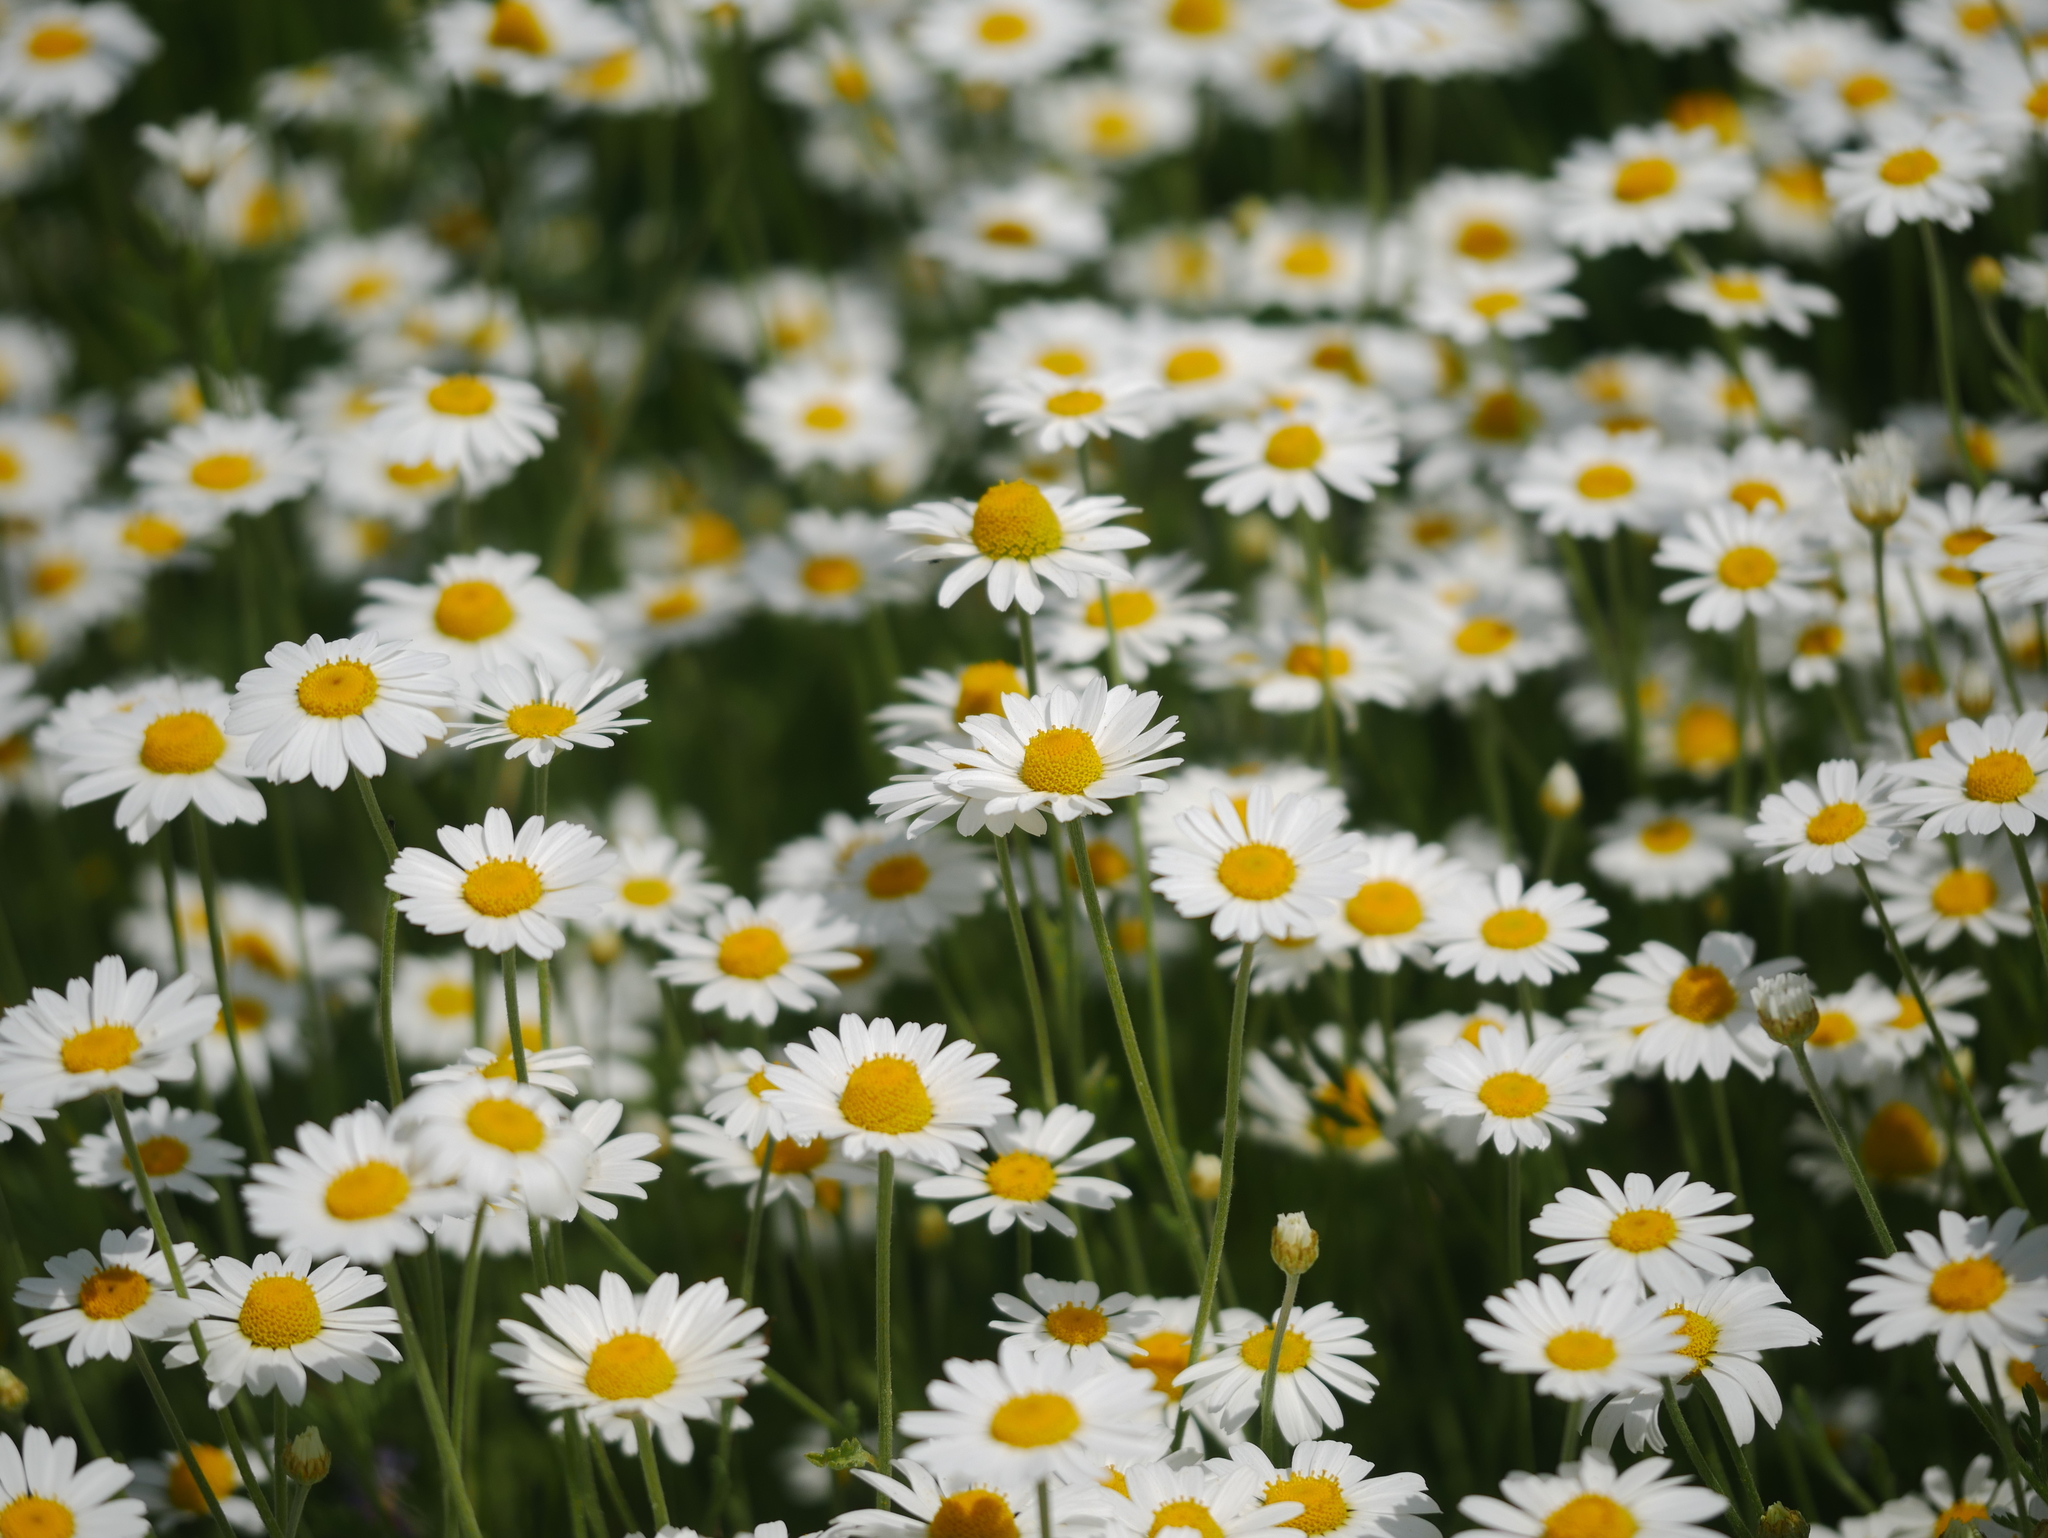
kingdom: Plantae
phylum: Tracheophyta
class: Magnoliopsida
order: Asterales
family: Asteraceae
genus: Leucanthemum
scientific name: Leucanthemum vulgare
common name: Oxeye daisy
